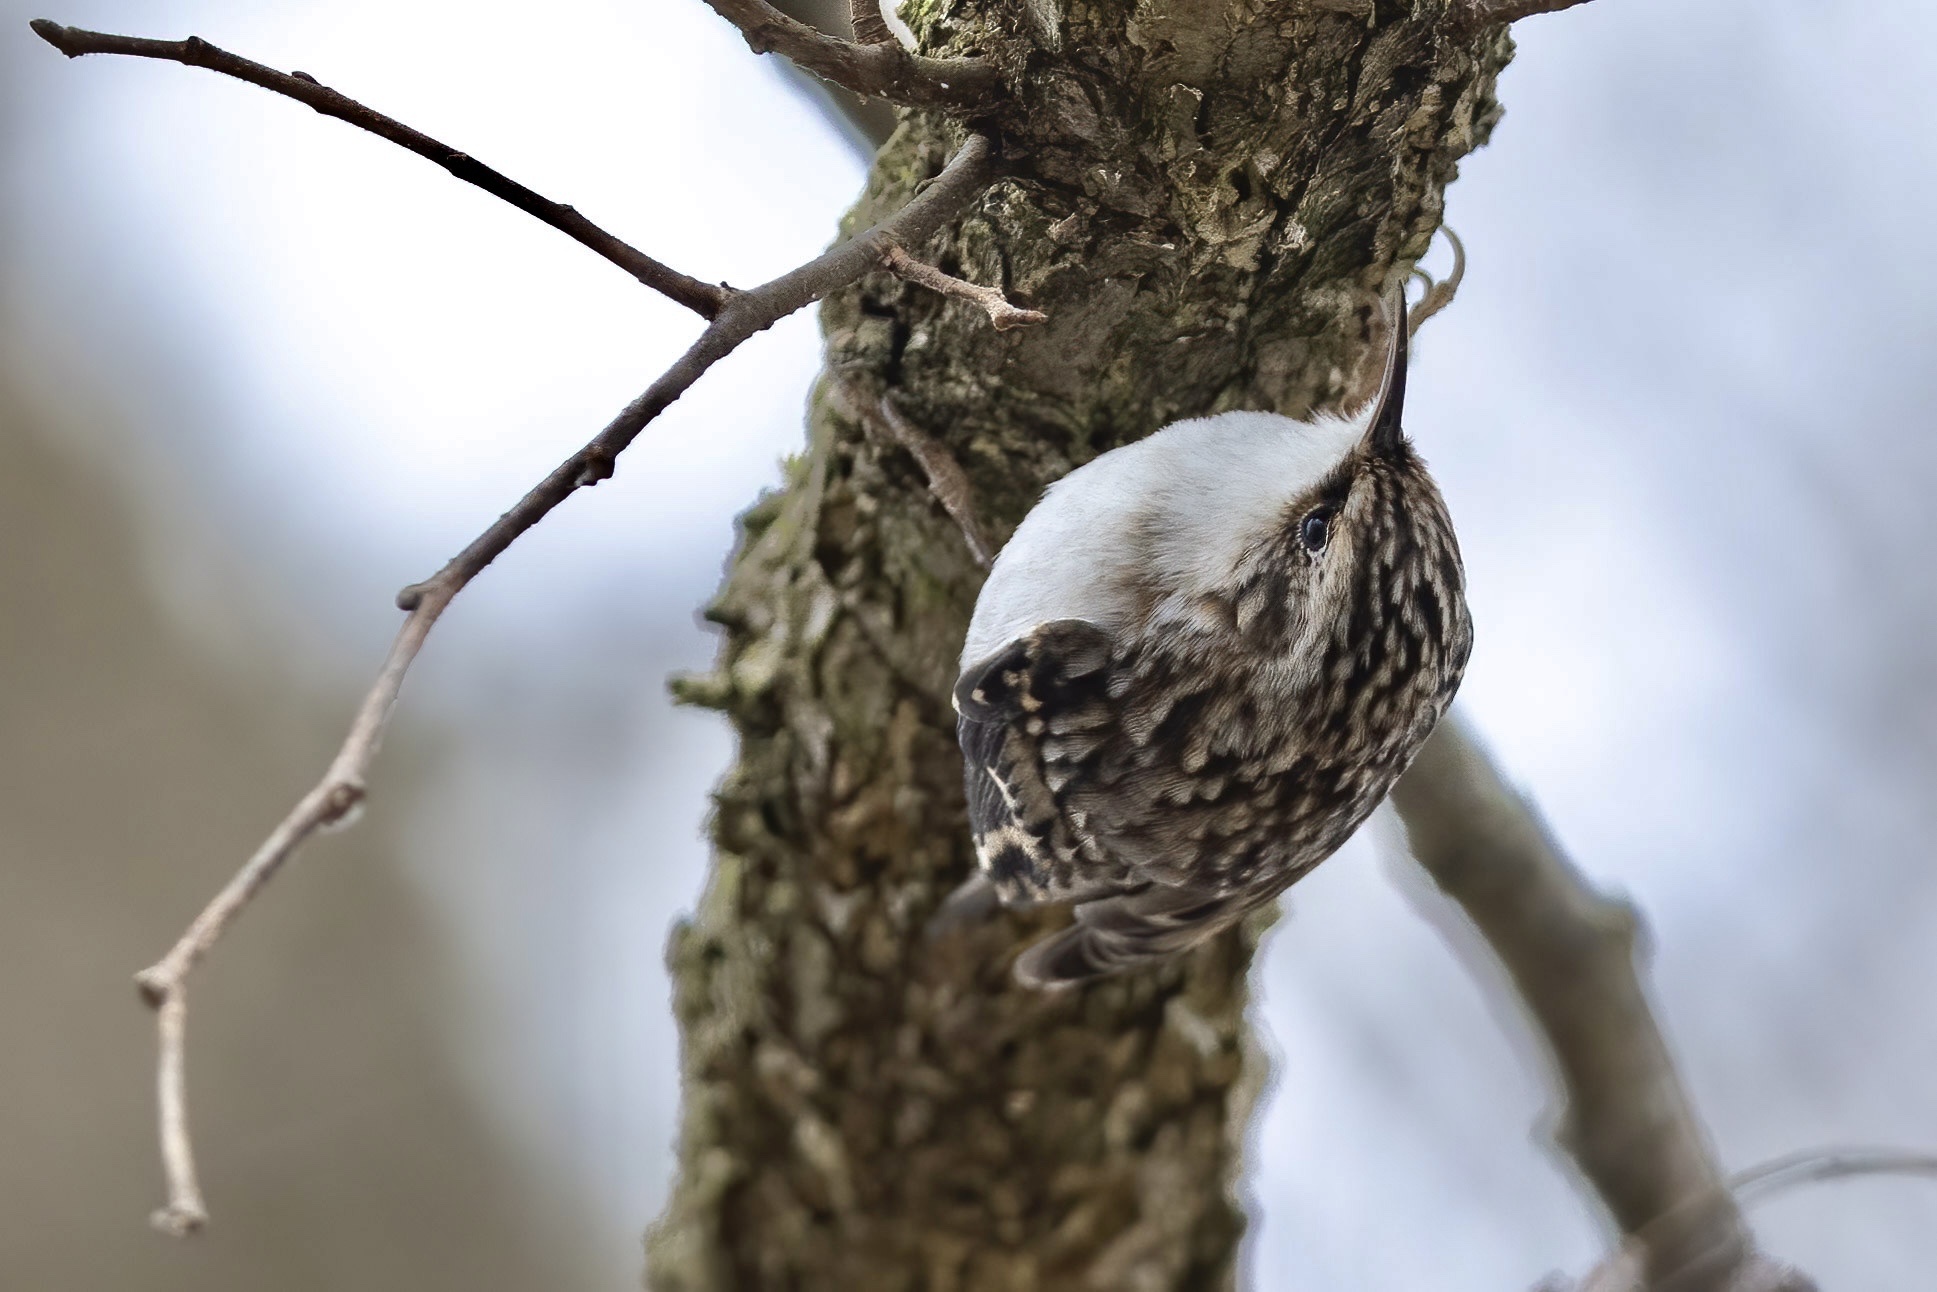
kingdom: Animalia
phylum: Chordata
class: Aves
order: Passeriformes
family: Certhiidae
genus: Certhia
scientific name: Certhia americana
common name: Brown creeper
